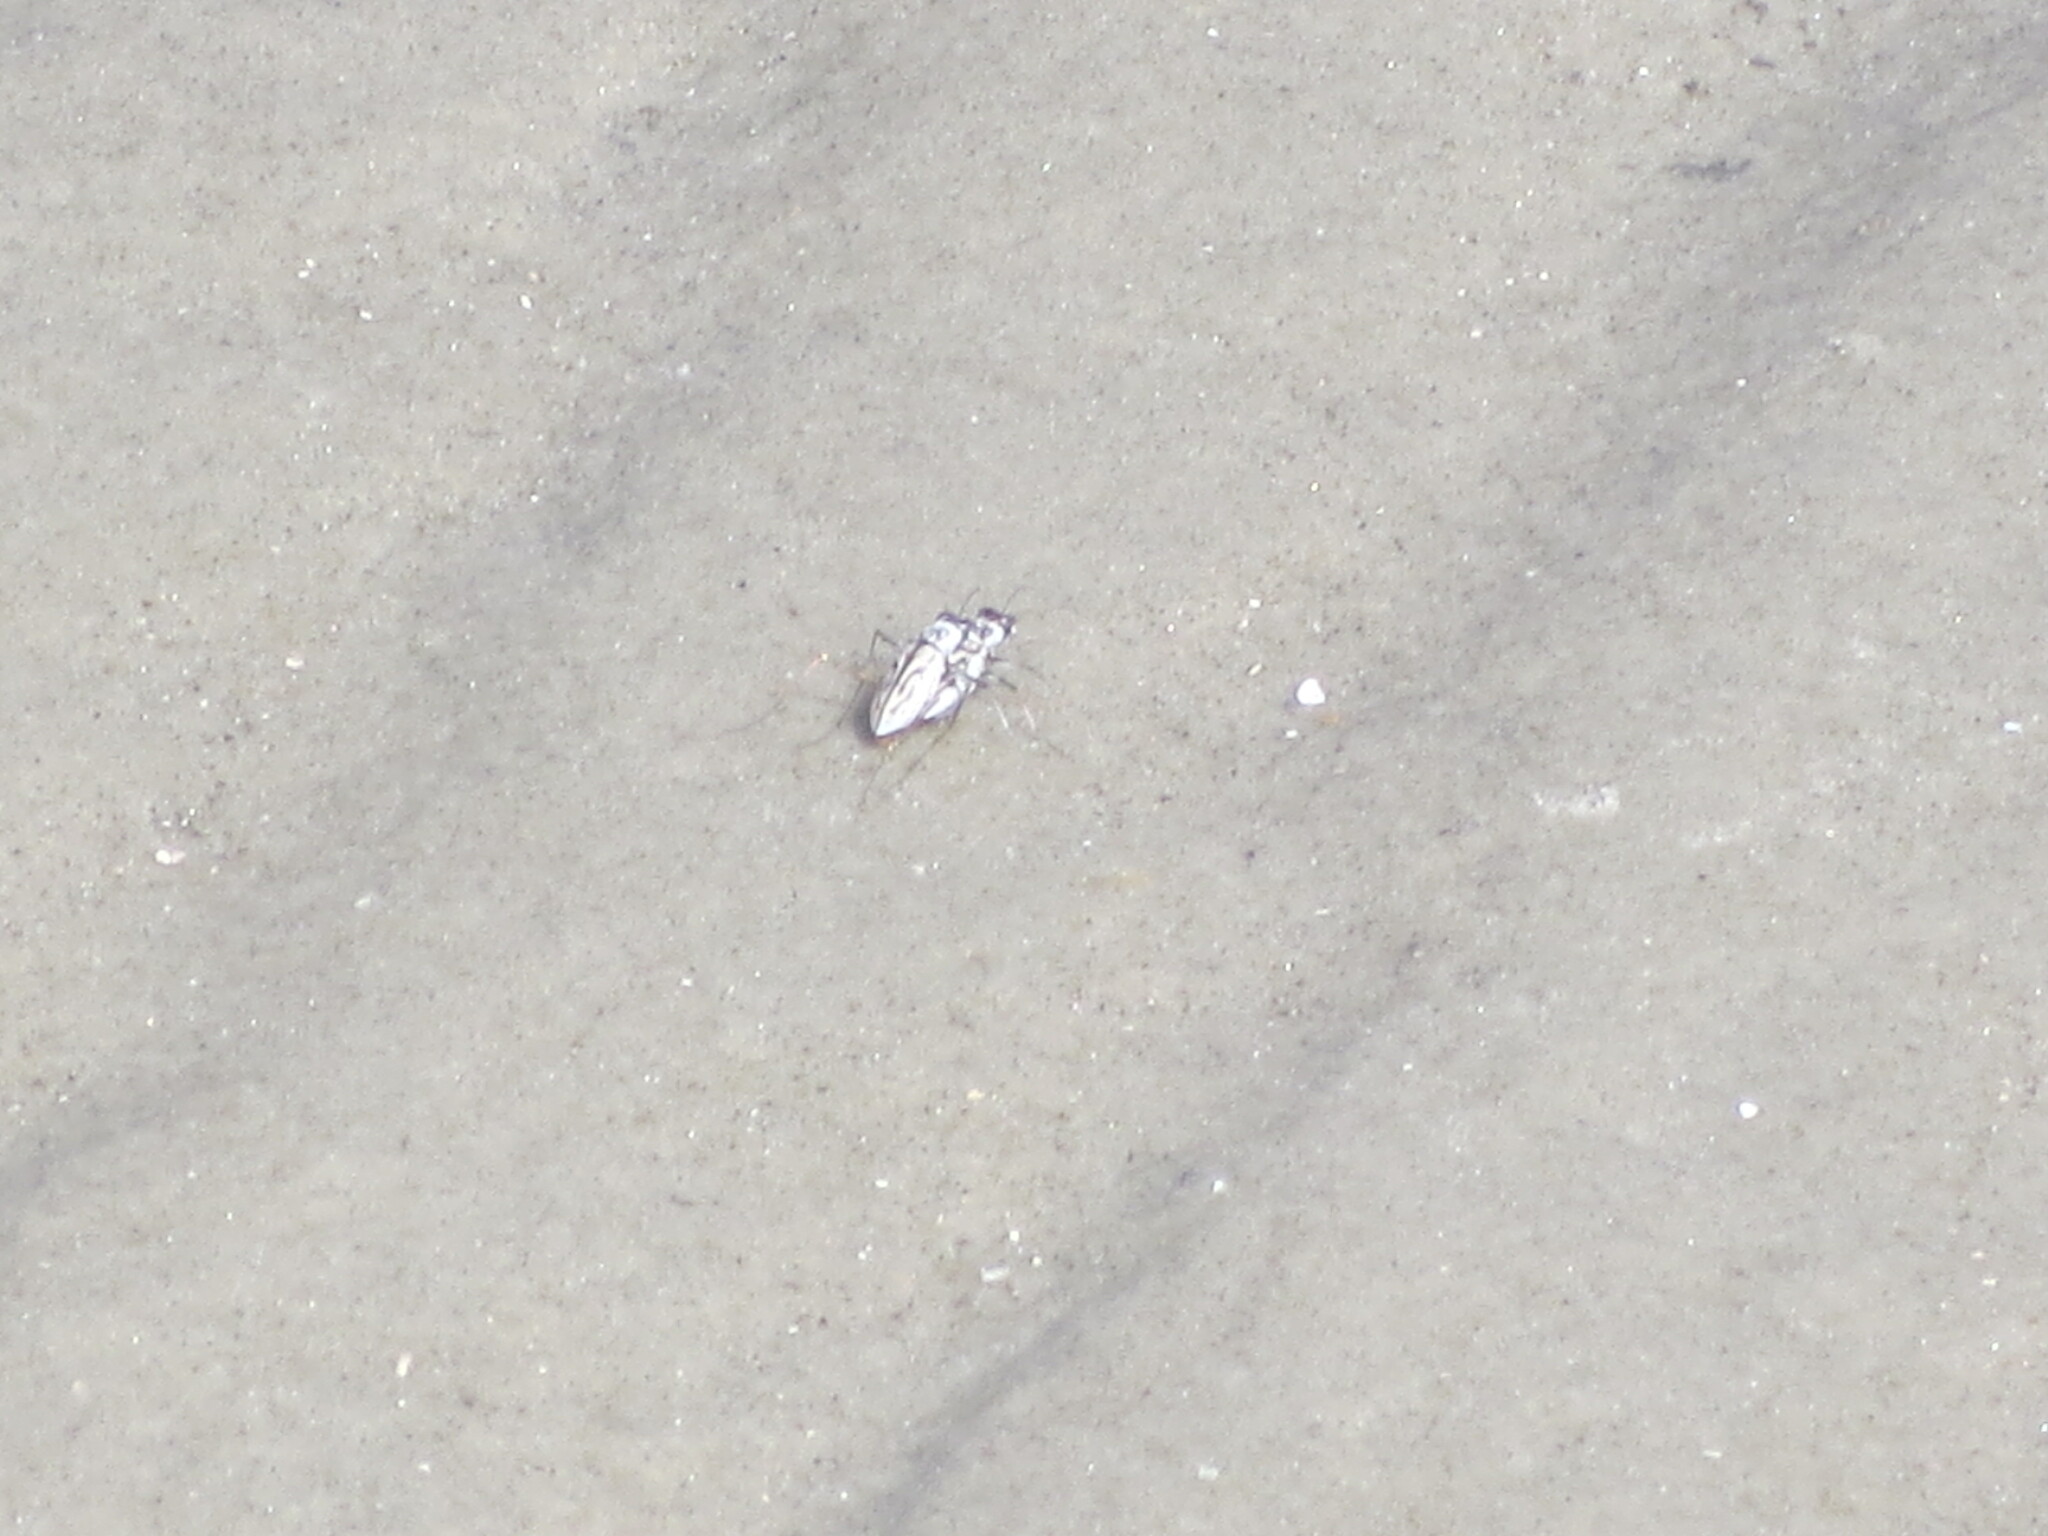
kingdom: Animalia
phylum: Arthropoda
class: Insecta
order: Coleoptera
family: Carabidae
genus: Habroscelimorpha
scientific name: Habroscelimorpha dorsalis
